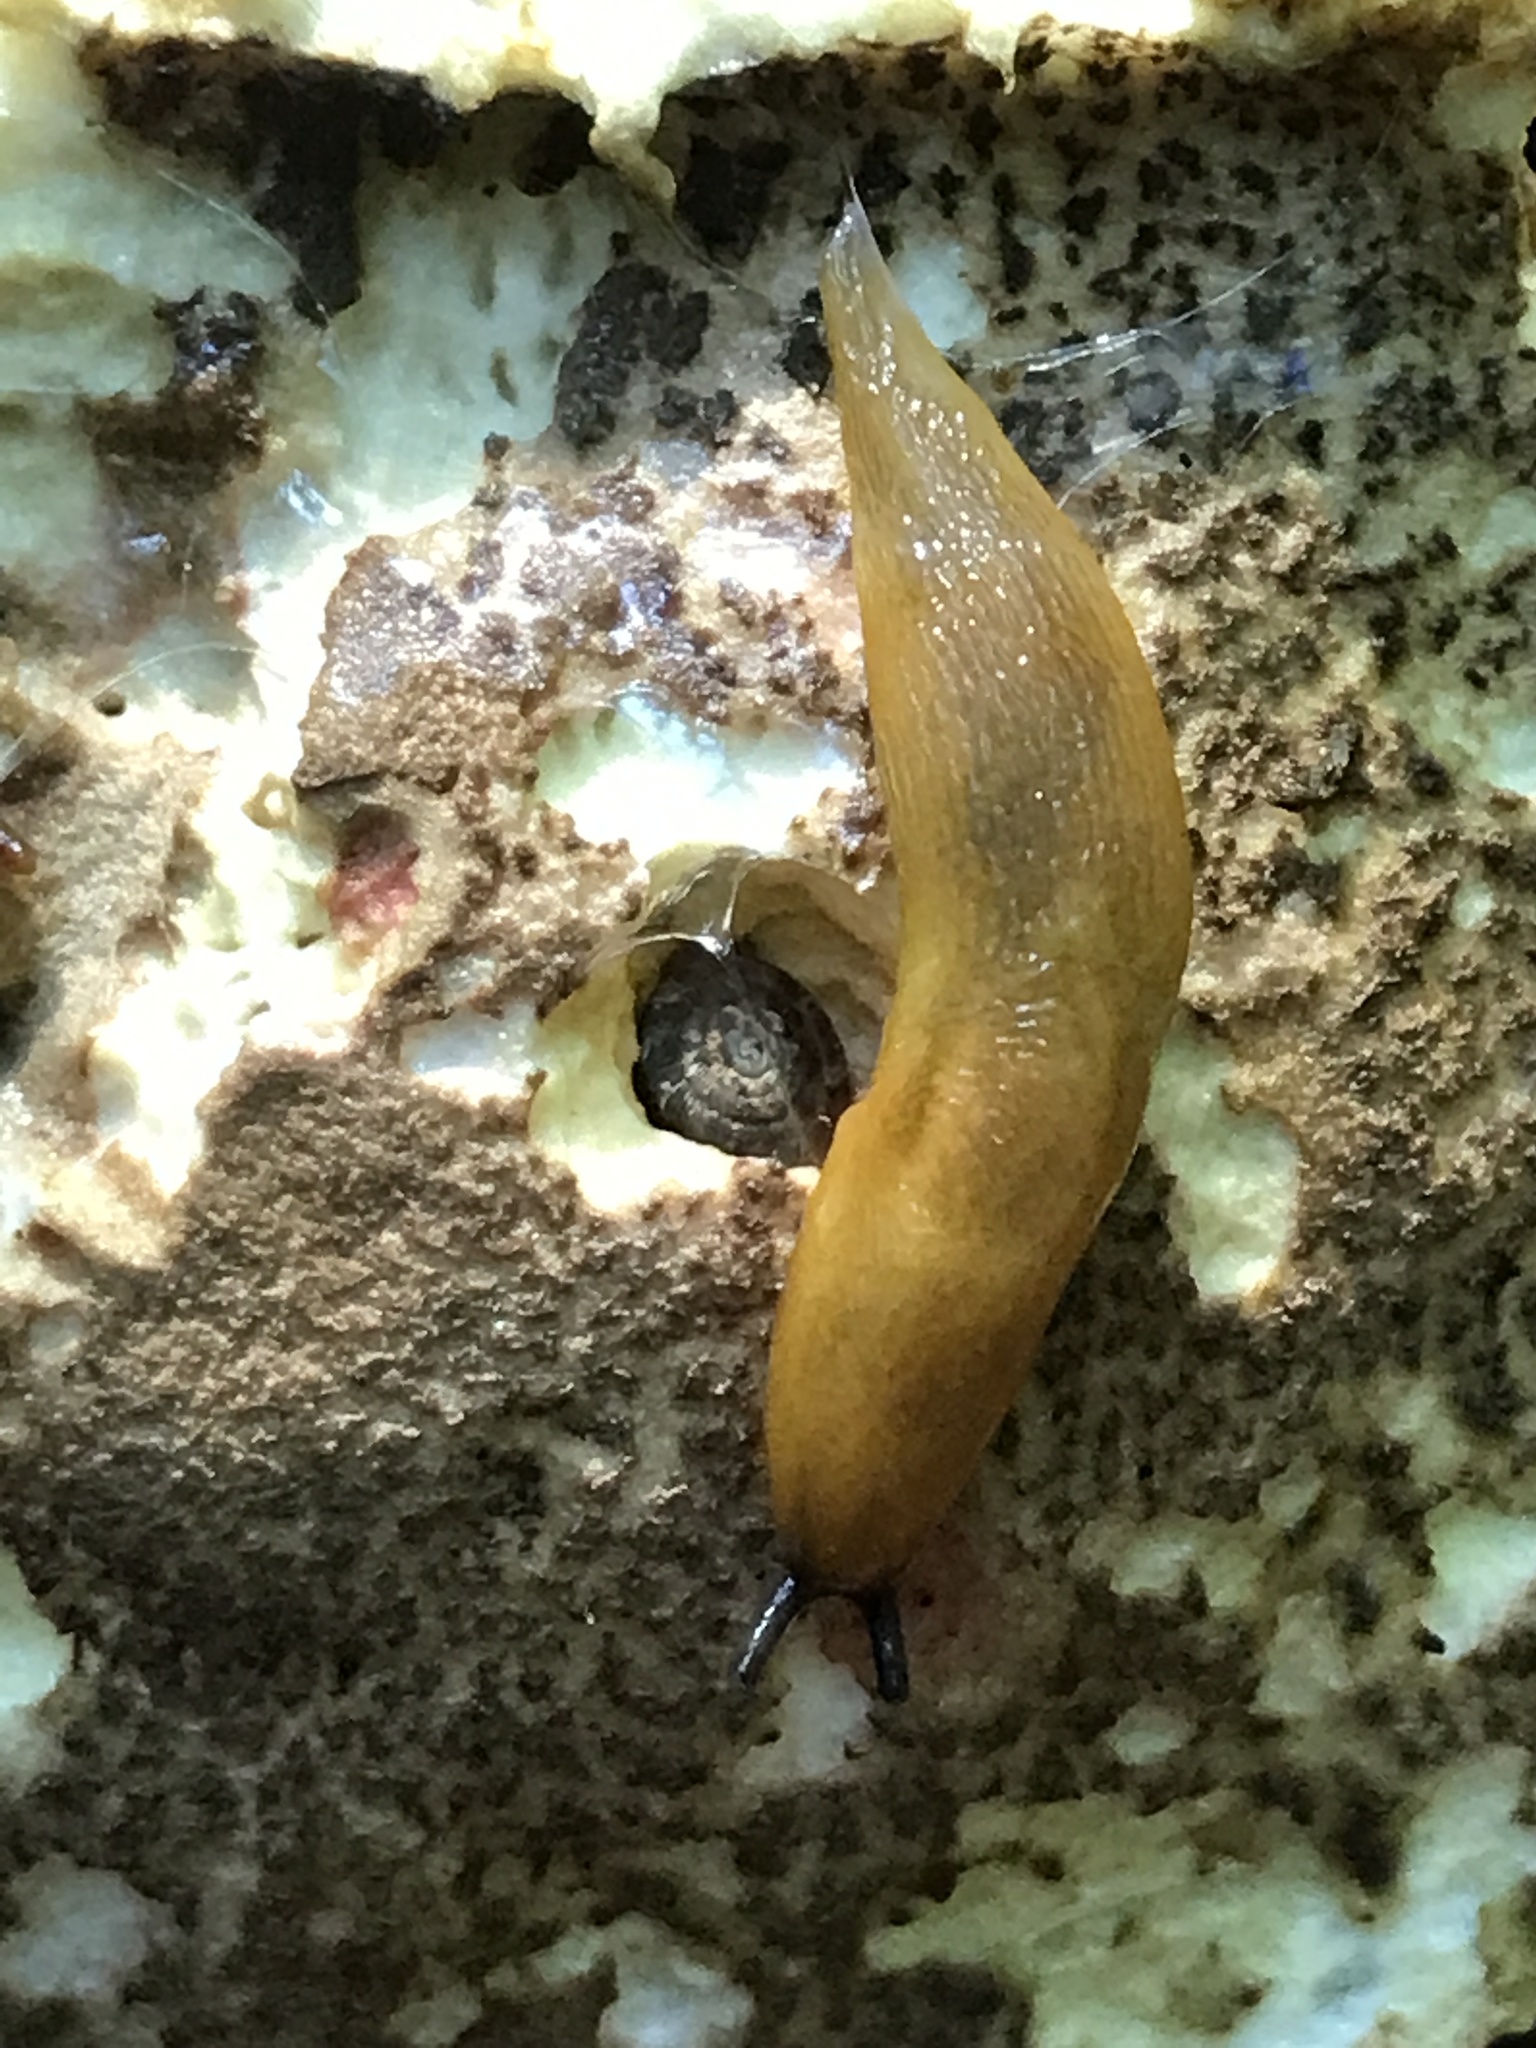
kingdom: Animalia
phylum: Mollusca
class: Gastropoda
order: Stylommatophora
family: Limacidae
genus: Malacolimax
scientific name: Malacolimax tenellus
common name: Lemon slug
